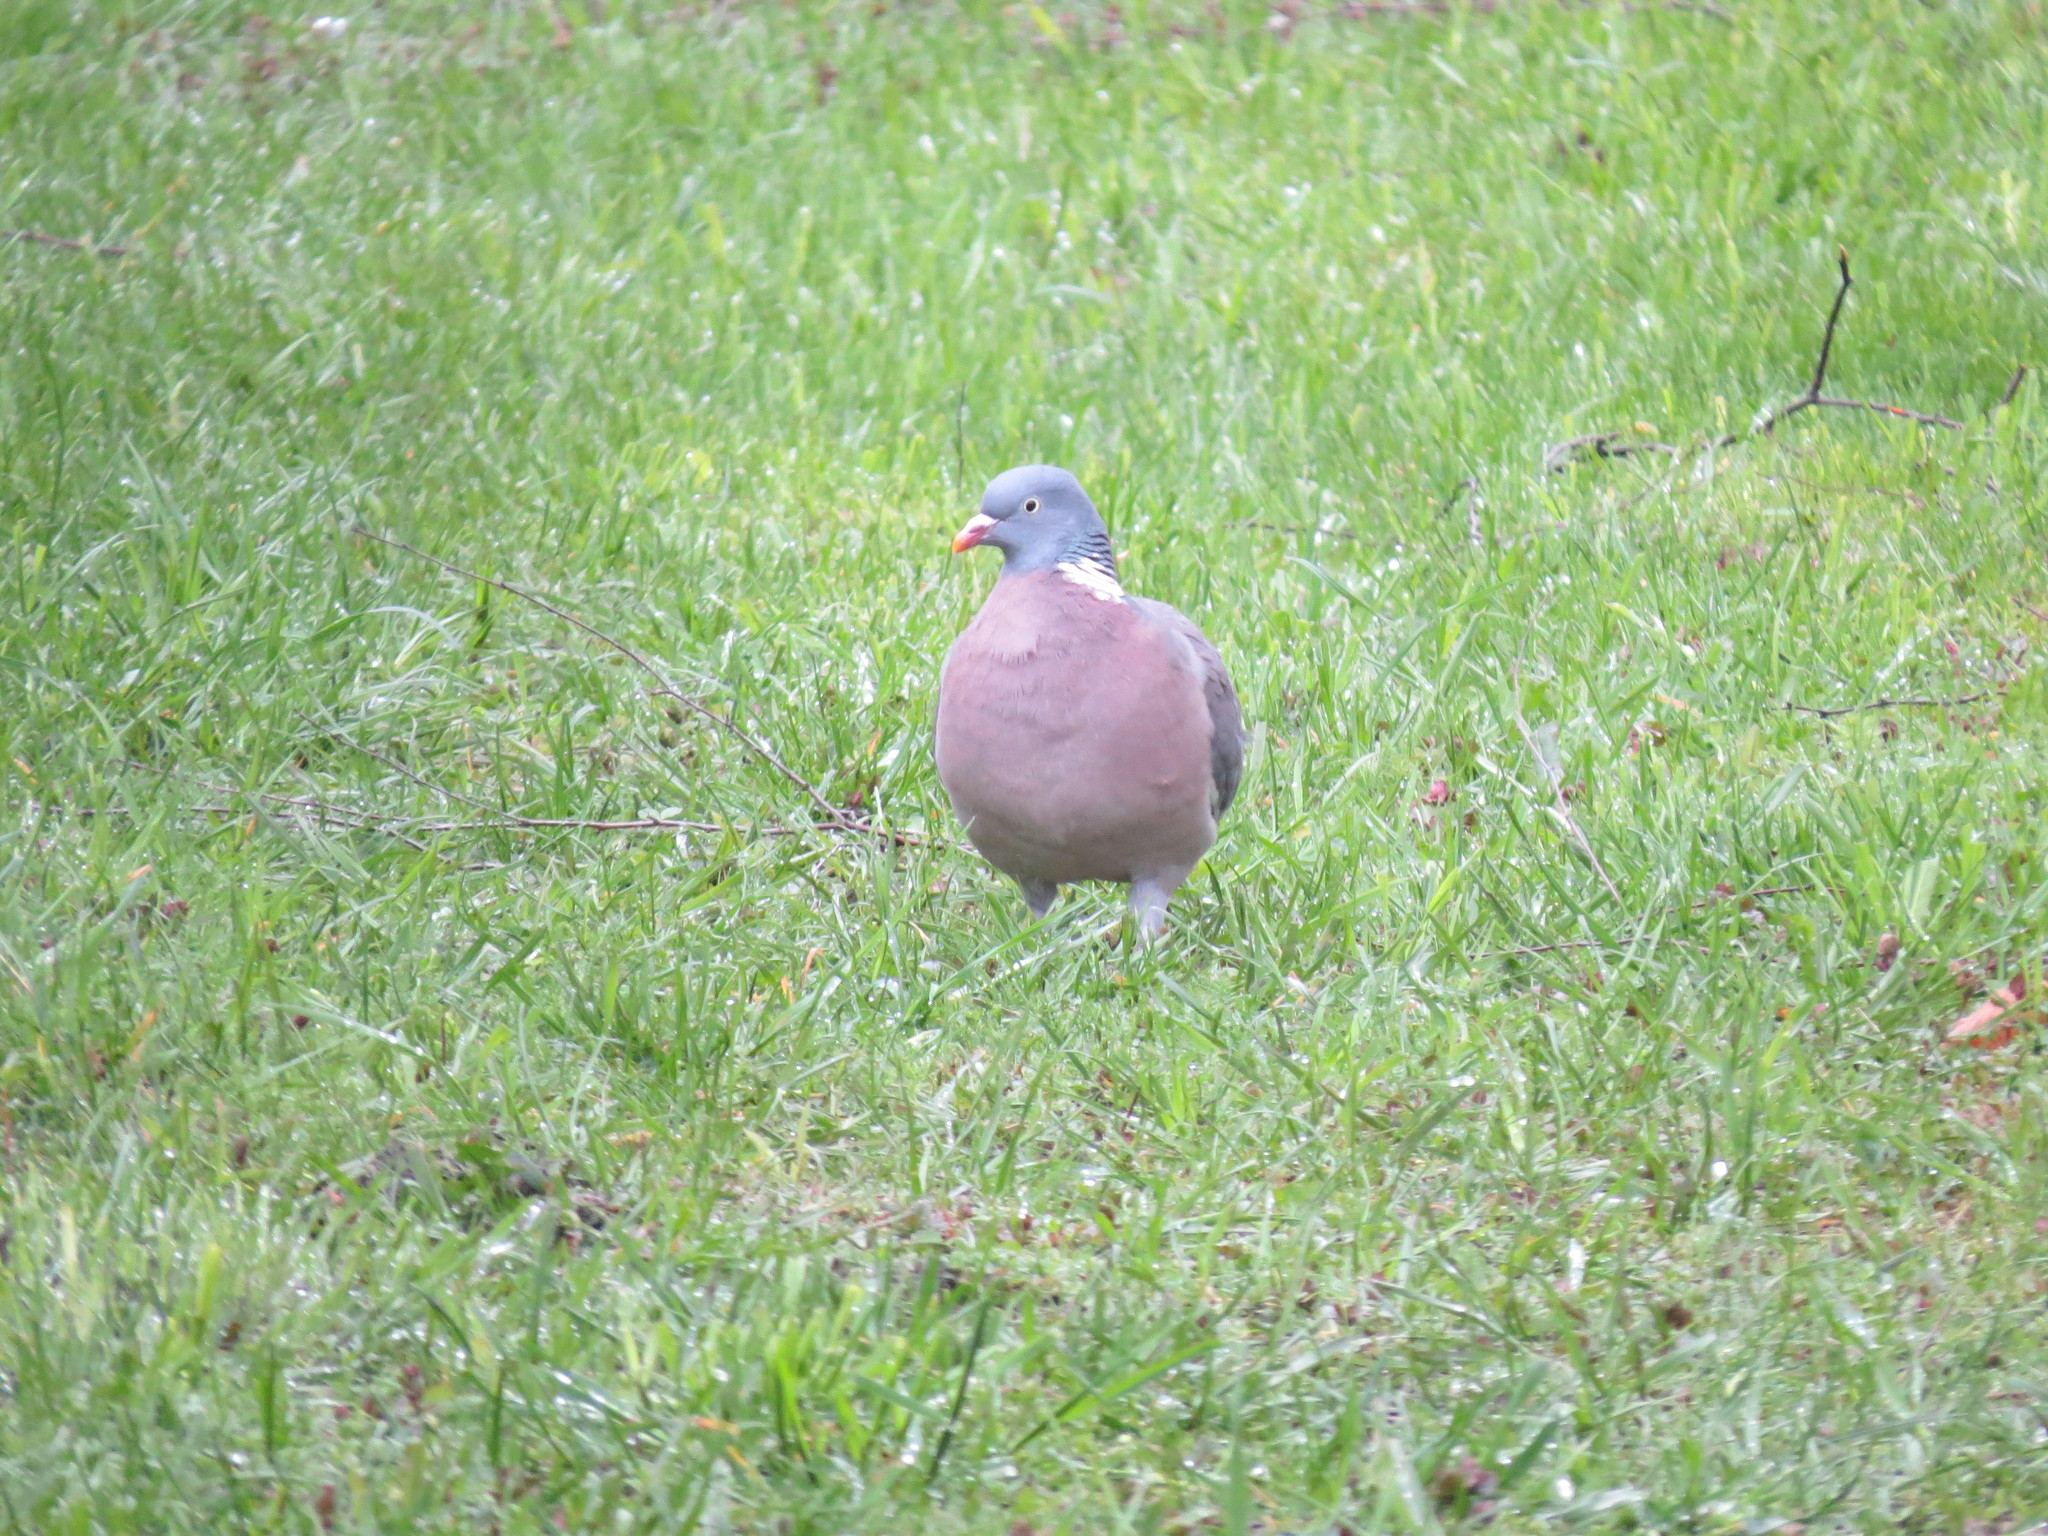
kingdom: Animalia
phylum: Chordata
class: Aves
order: Columbiformes
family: Columbidae
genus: Columba
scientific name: Columba palumbus
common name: Common wood pigeon
